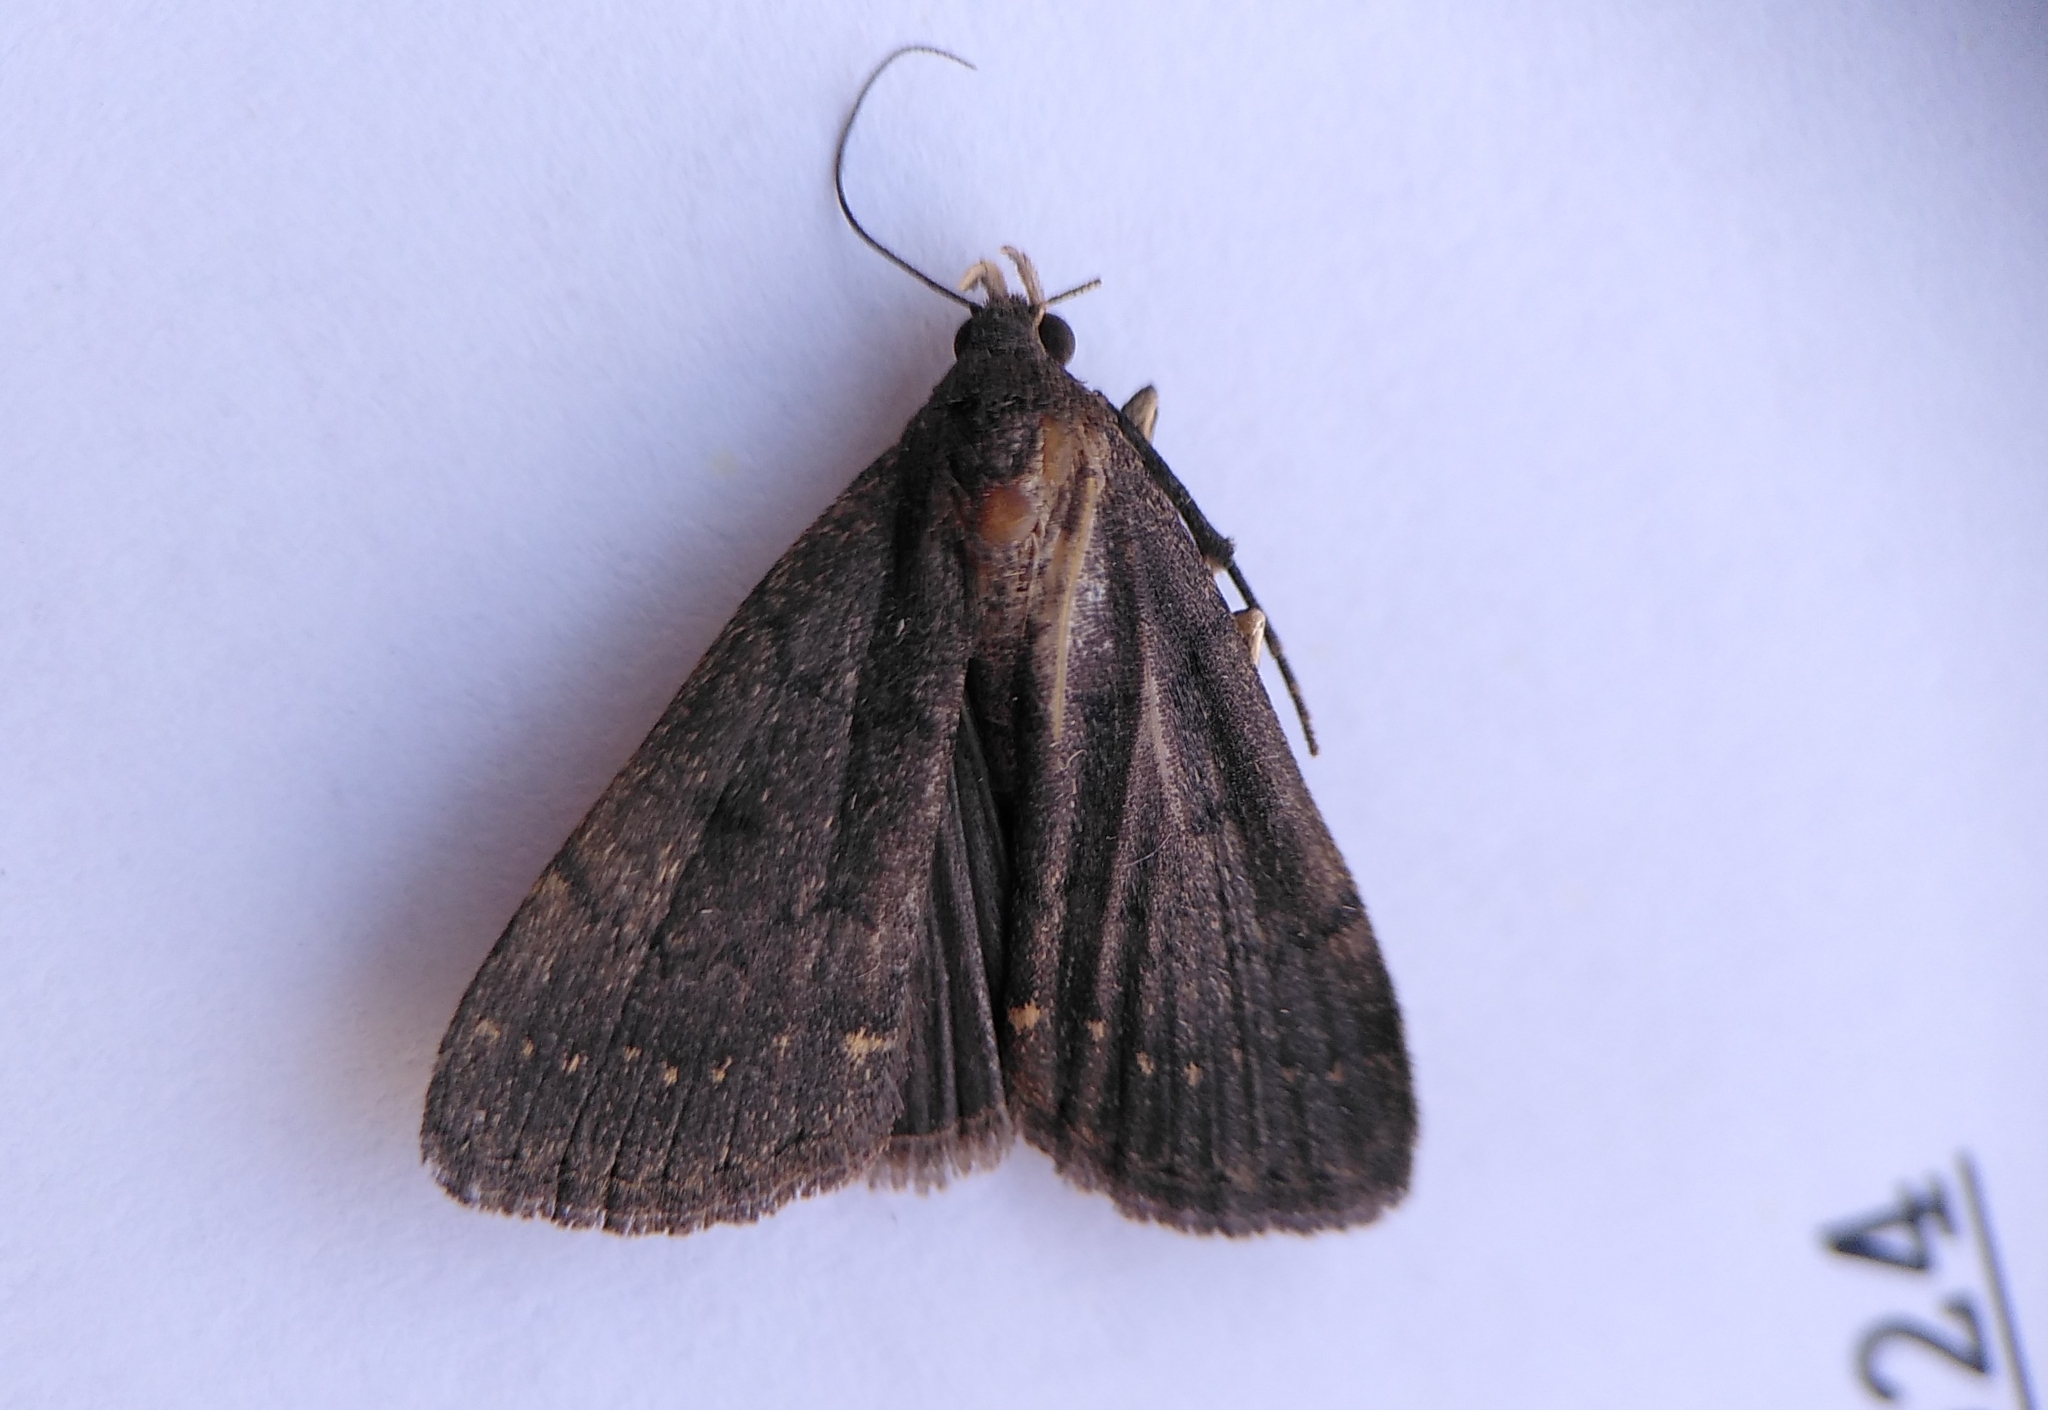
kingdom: Animalia
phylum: Arthropoda
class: Insecta
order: Lepidoptera
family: Erebidae
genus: Nodaria
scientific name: Nodaria nodosalis
